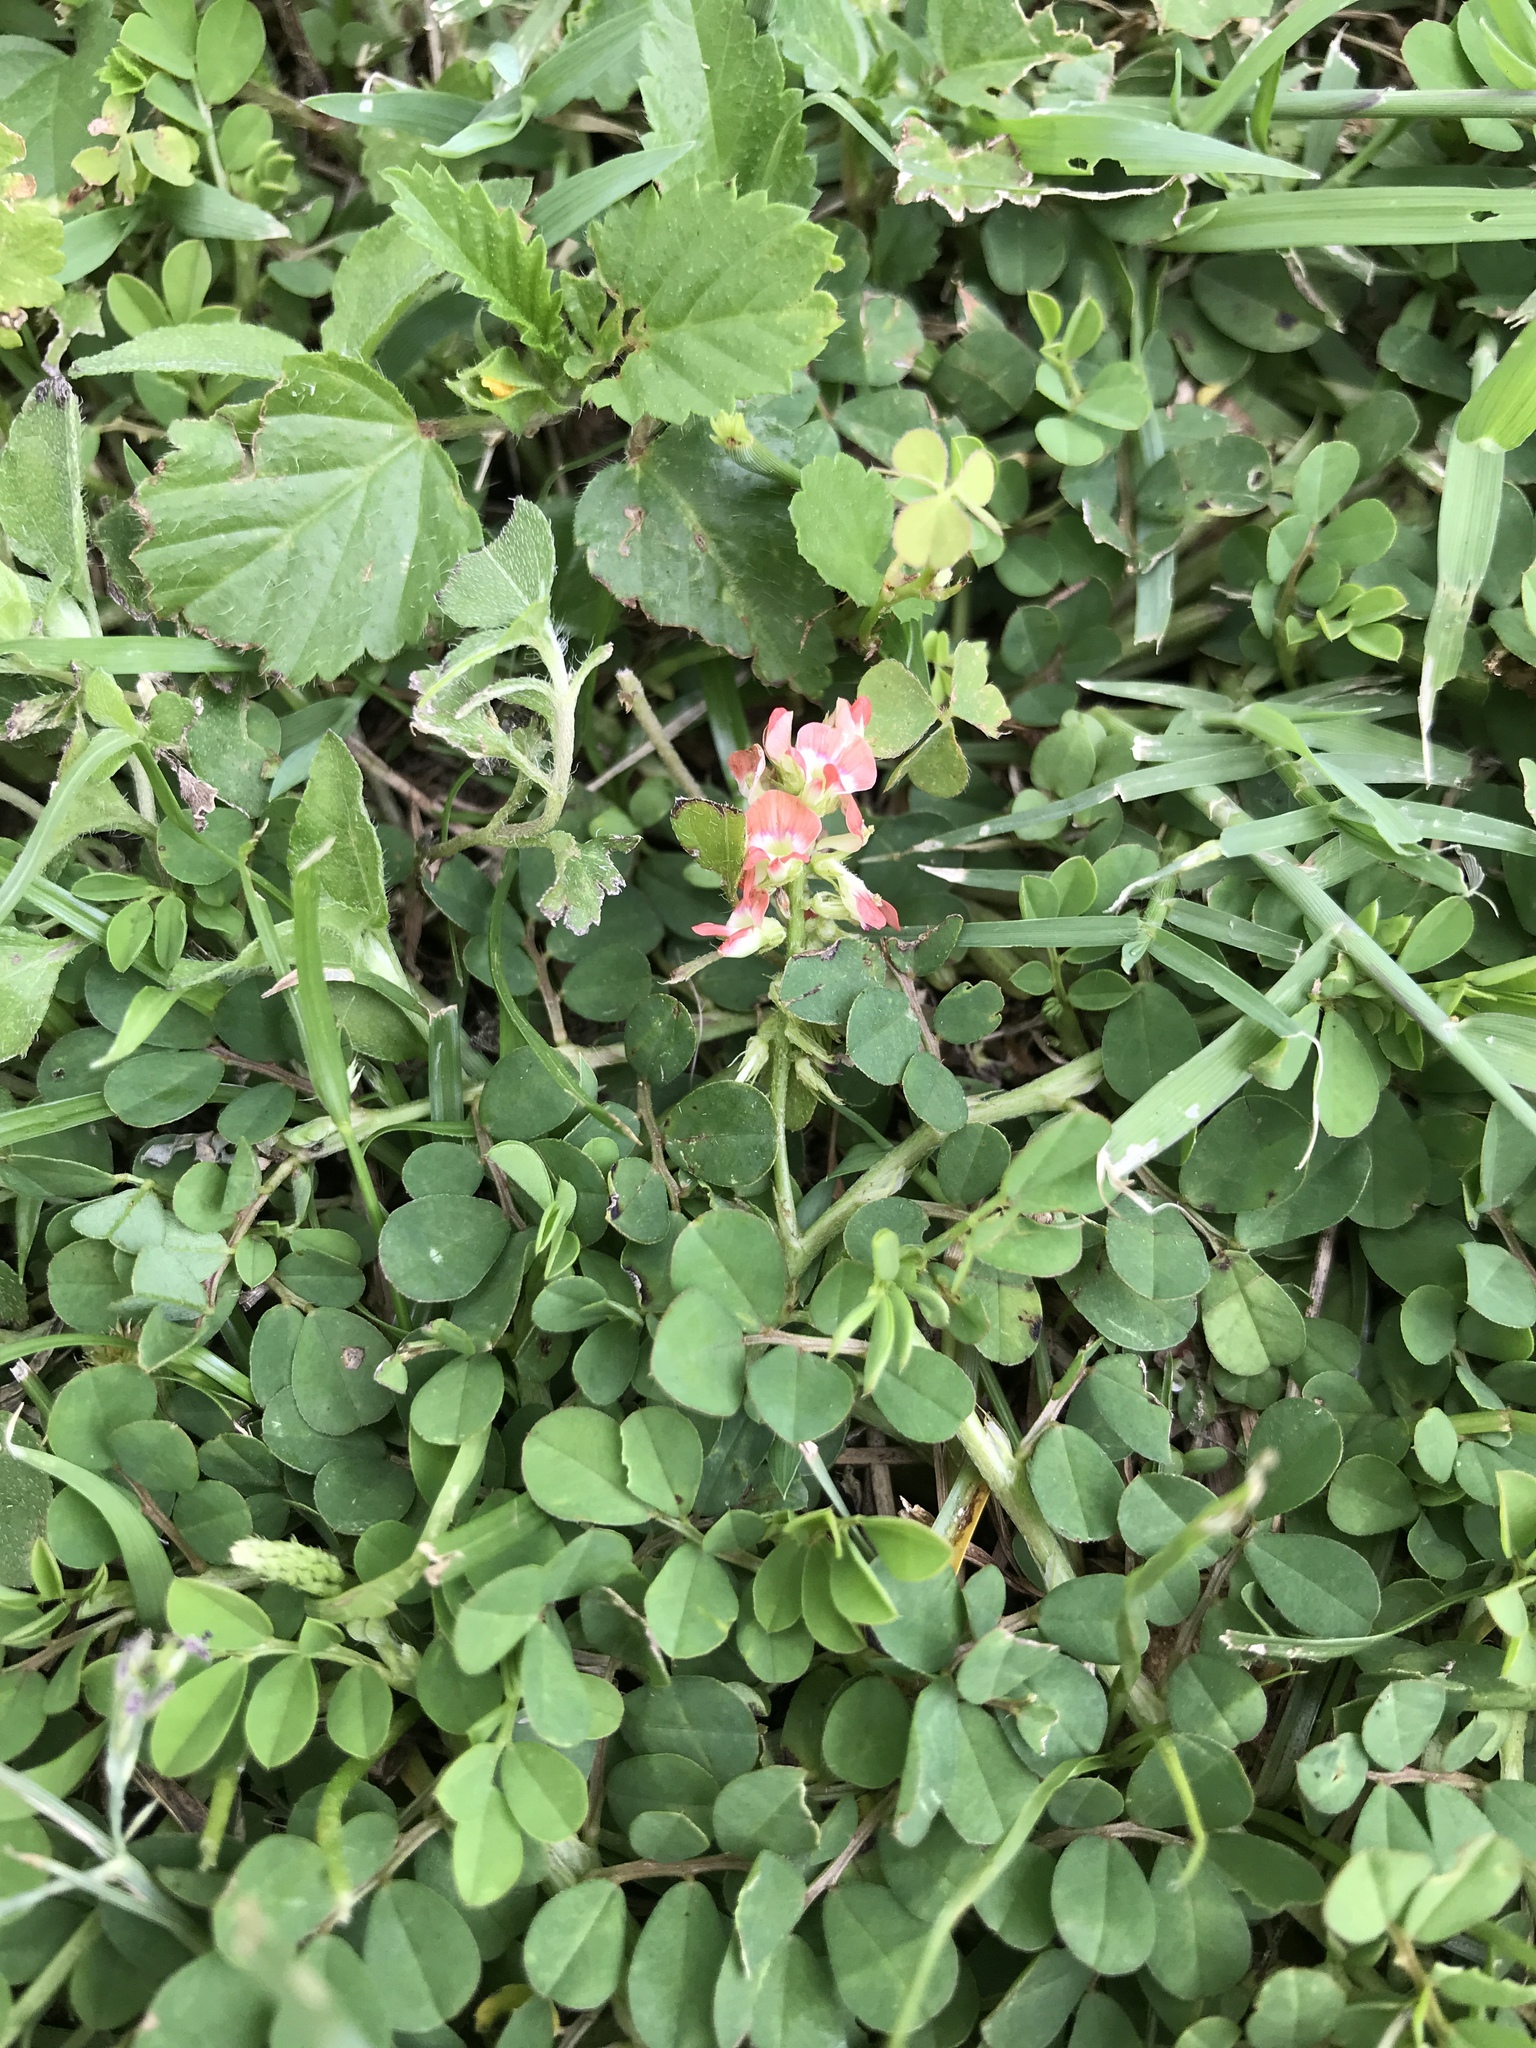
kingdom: Plantae
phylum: Tracheophyta
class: Magnoliopsida
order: Fabales
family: Fabaceae
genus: Indigofera
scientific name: Indigofera spicata
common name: Creeping indigo
